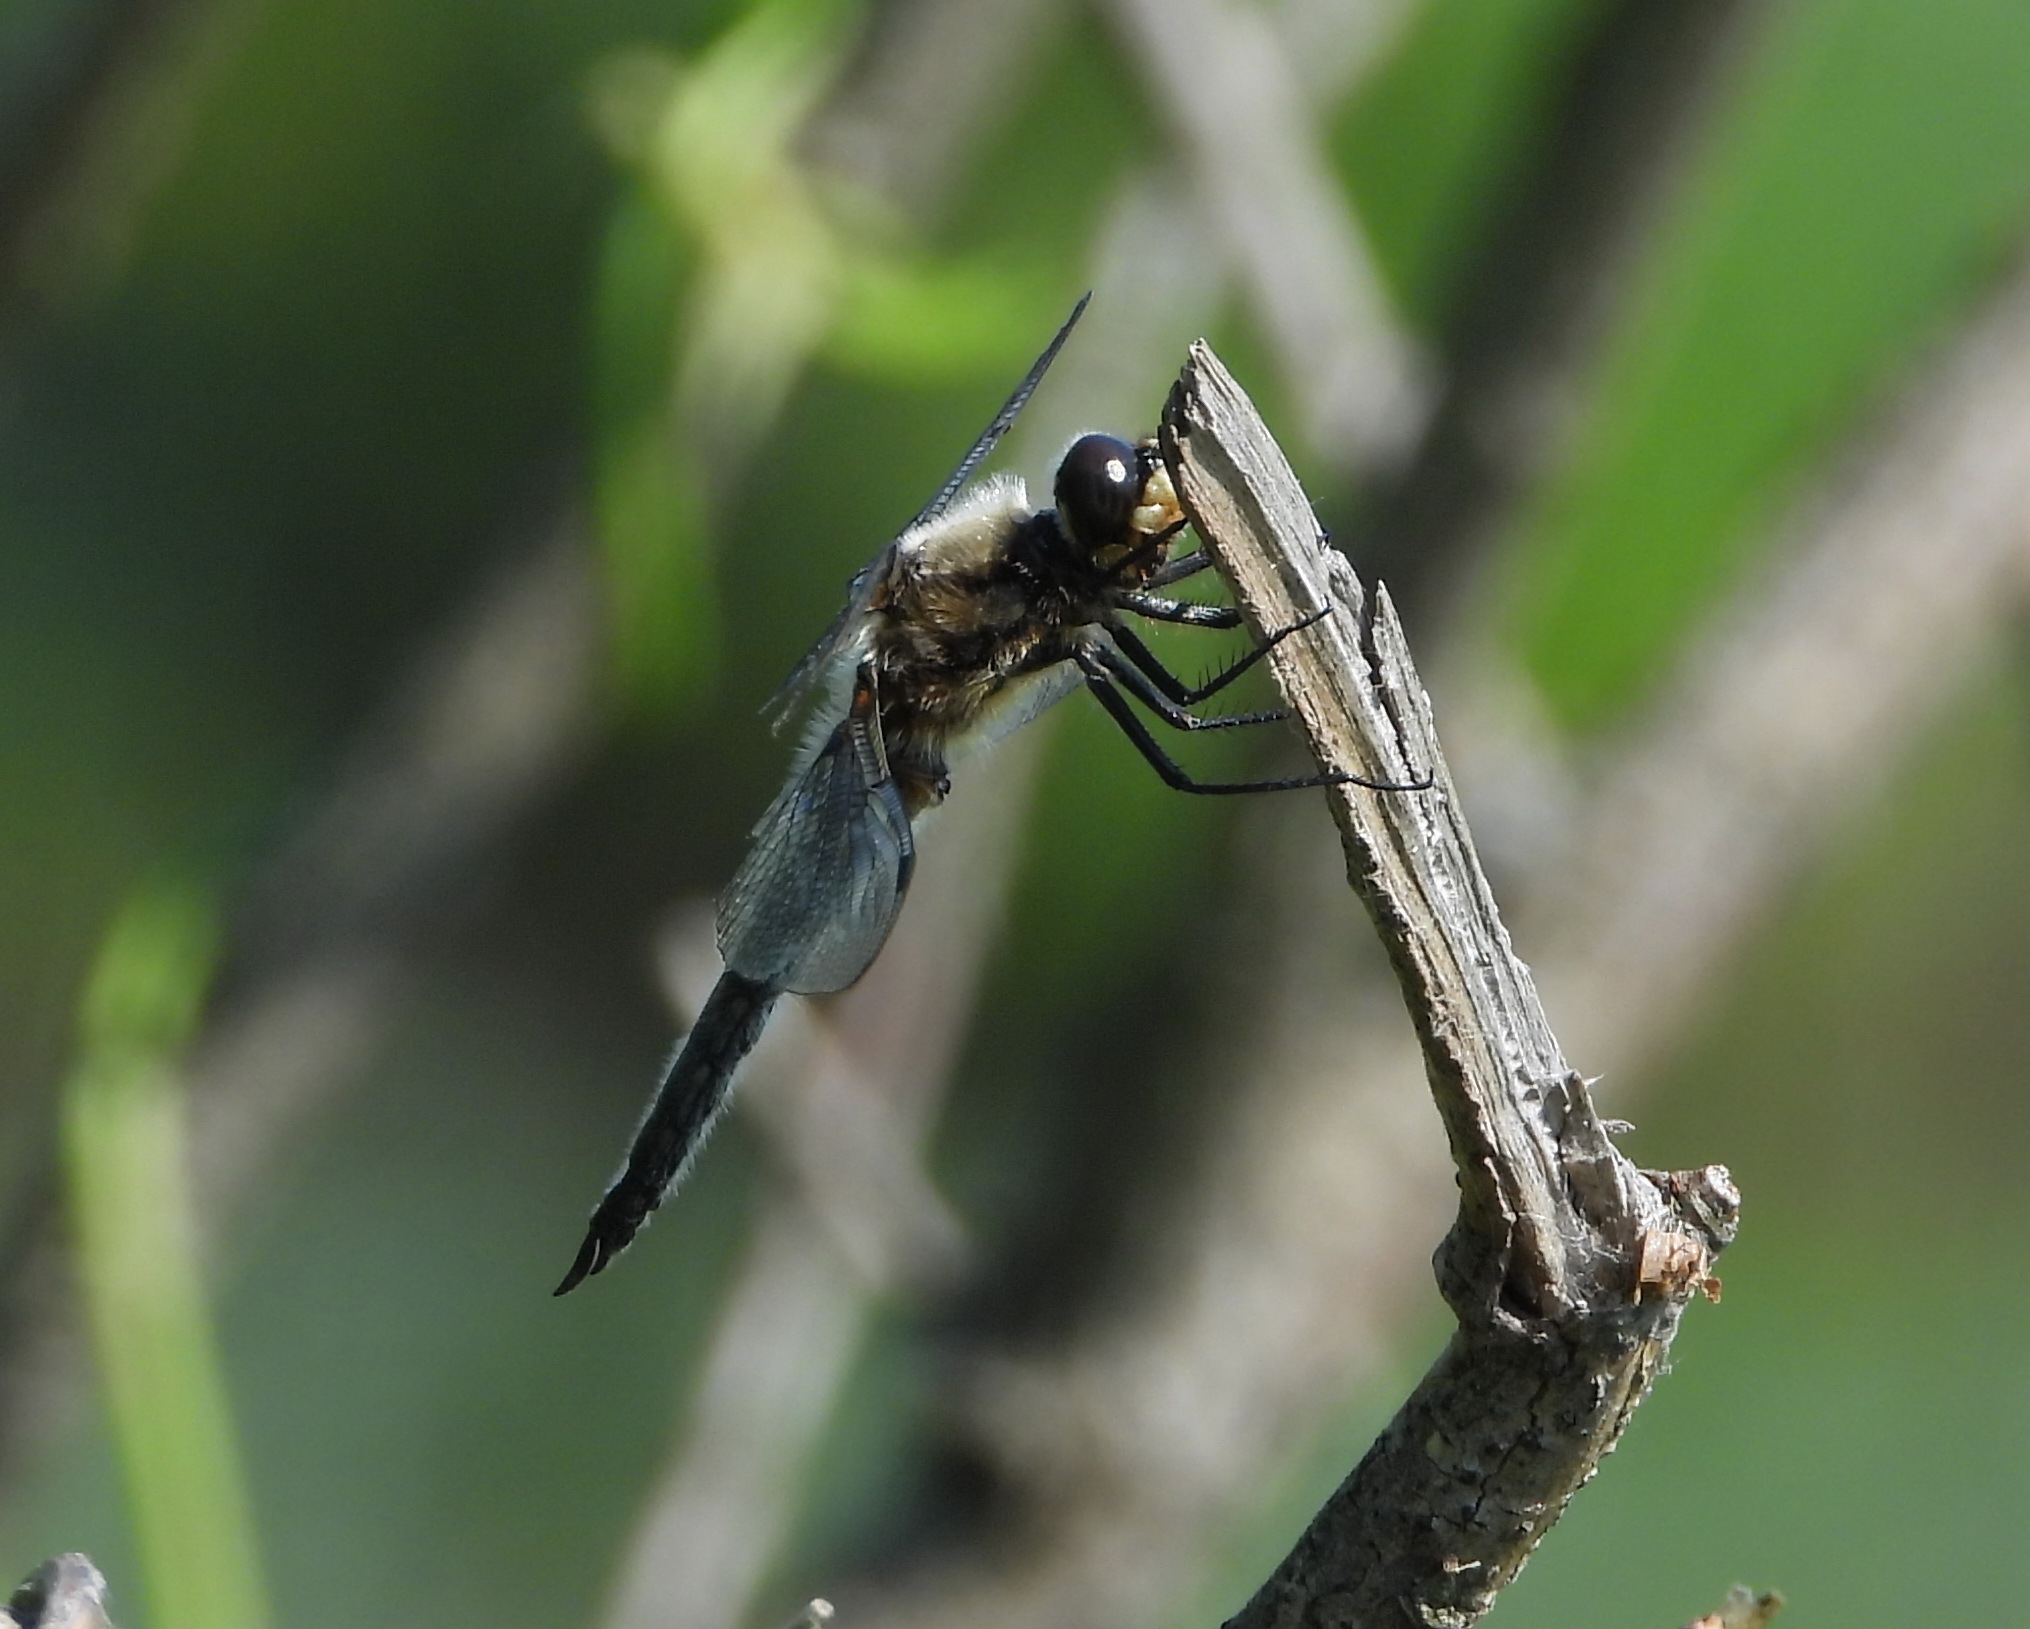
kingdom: Animalia
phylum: Arthropoda
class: Insecta
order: Odonata
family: Libellulidae
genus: Libellula
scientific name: Libellula quadrimaculata
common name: Four-spotted chaser
